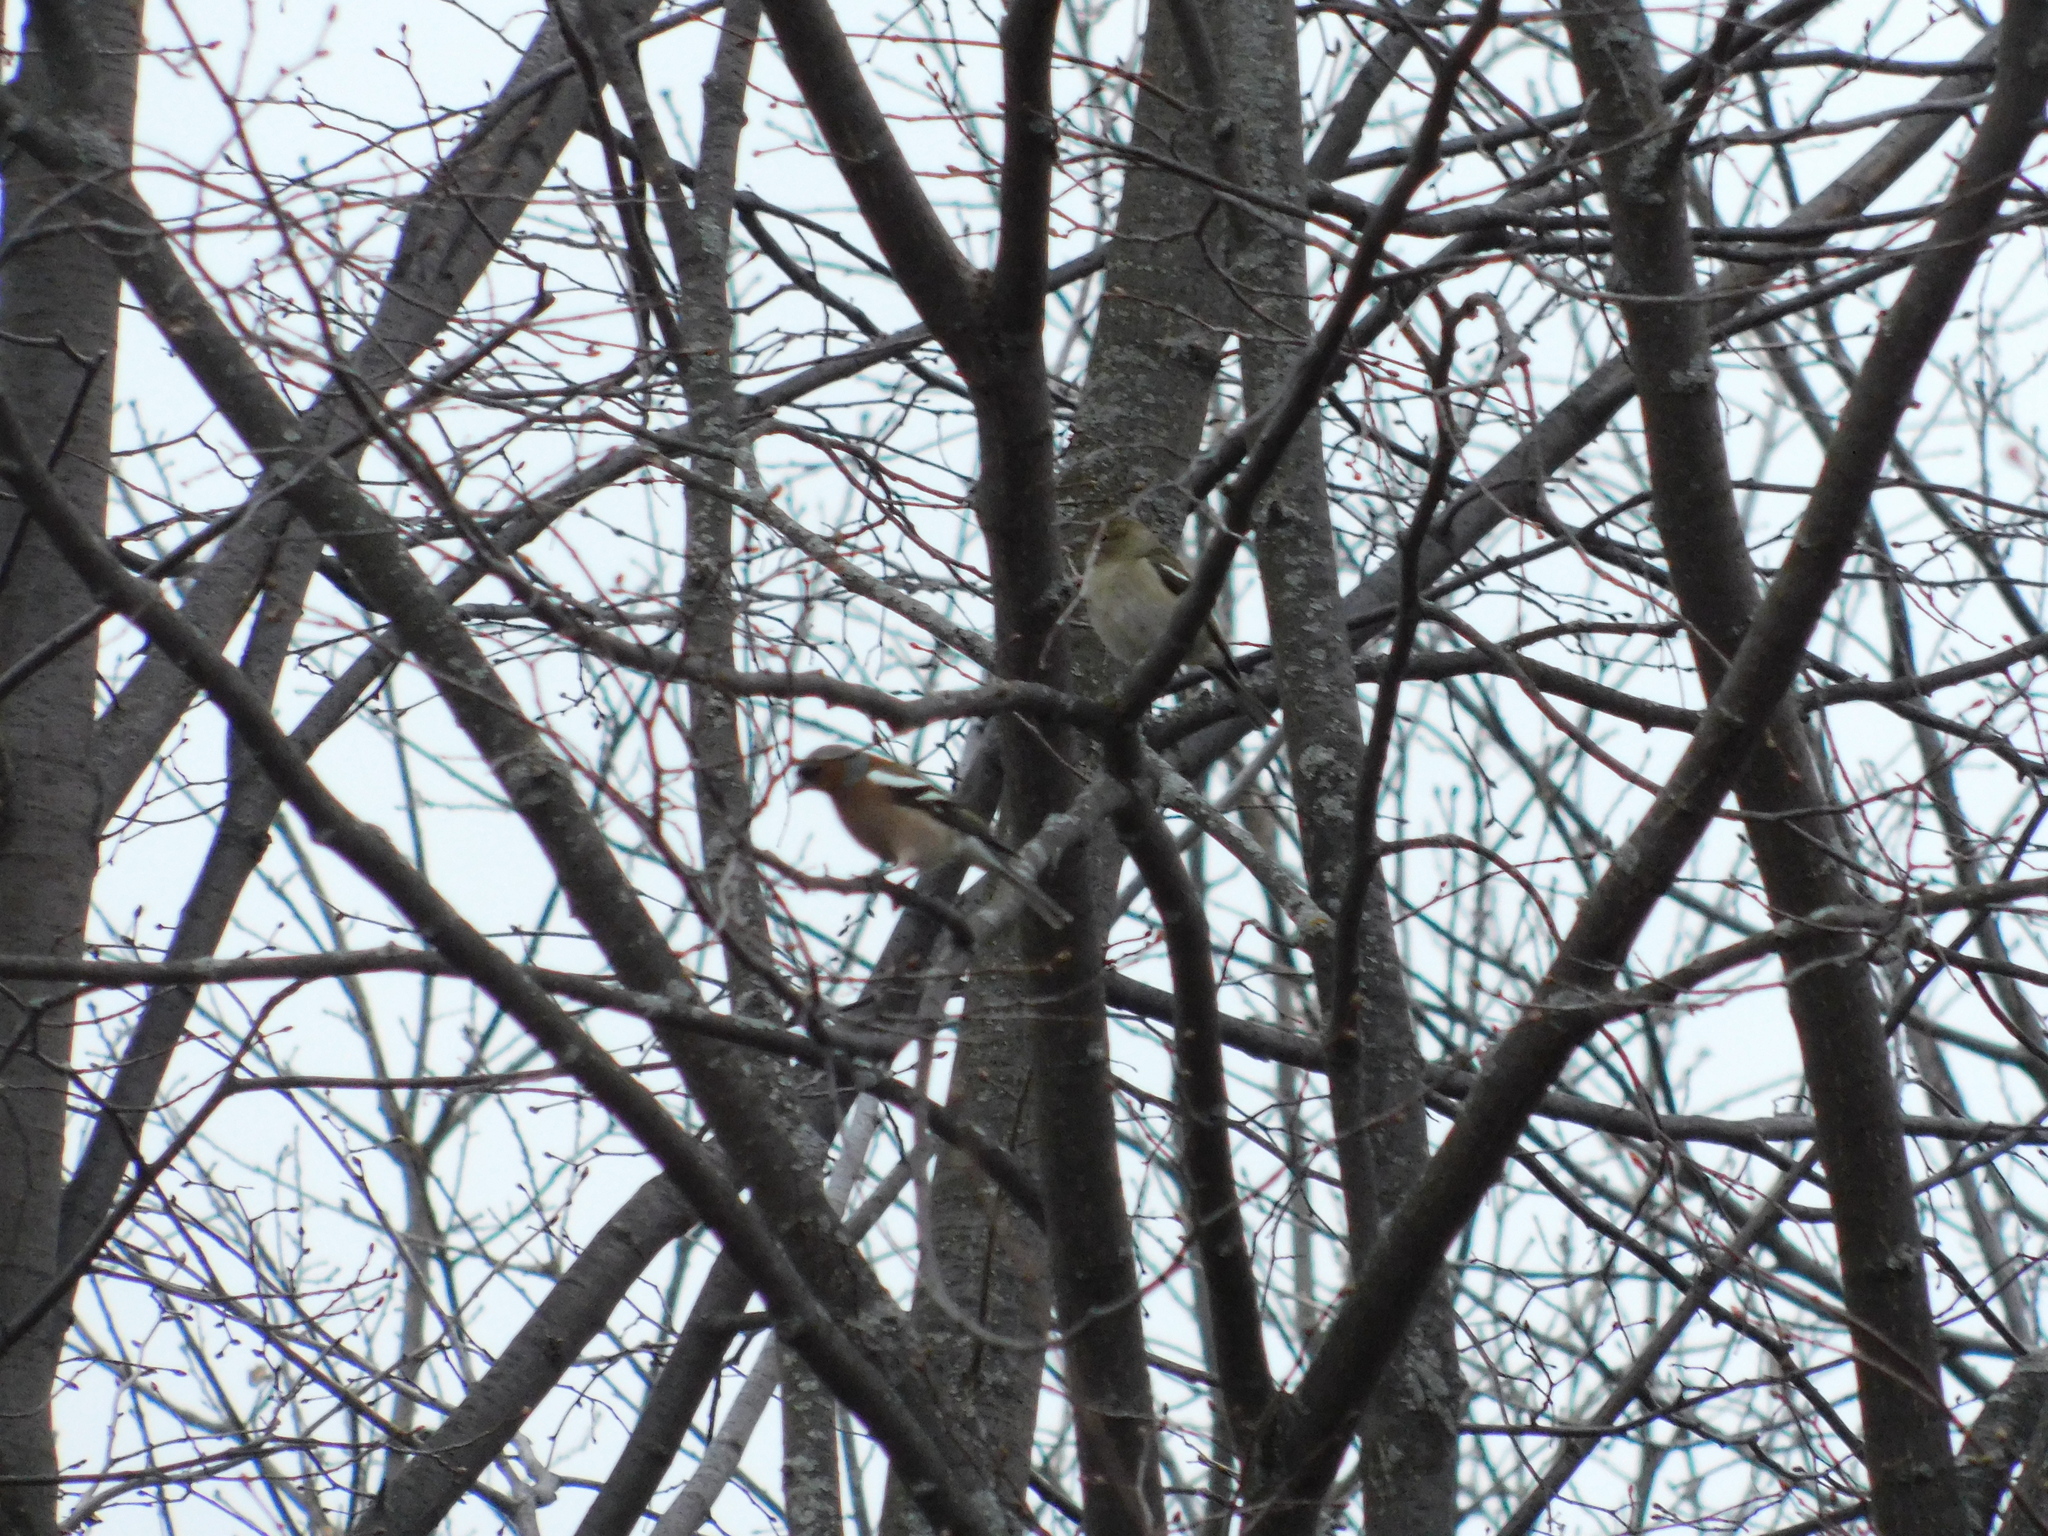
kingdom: Animalia
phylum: Chordata
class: Aves
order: Passeriformes
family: Fringillidae
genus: Fringilla
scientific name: Fringilla coelebs
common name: Common chaffinch
